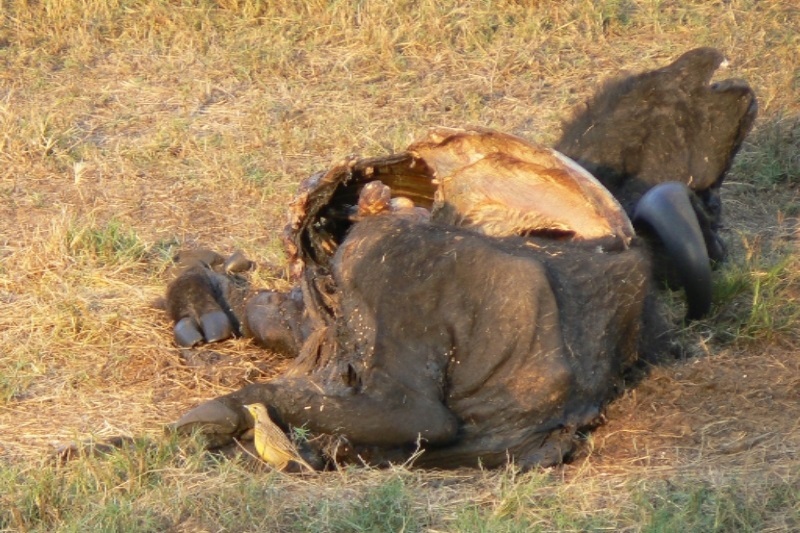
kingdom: Animalia
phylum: Chordata
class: Aves
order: Passeriformes
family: Motacillidae
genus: Macronyx
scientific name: Macronyx croceus
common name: Yellow-throated longclaw
